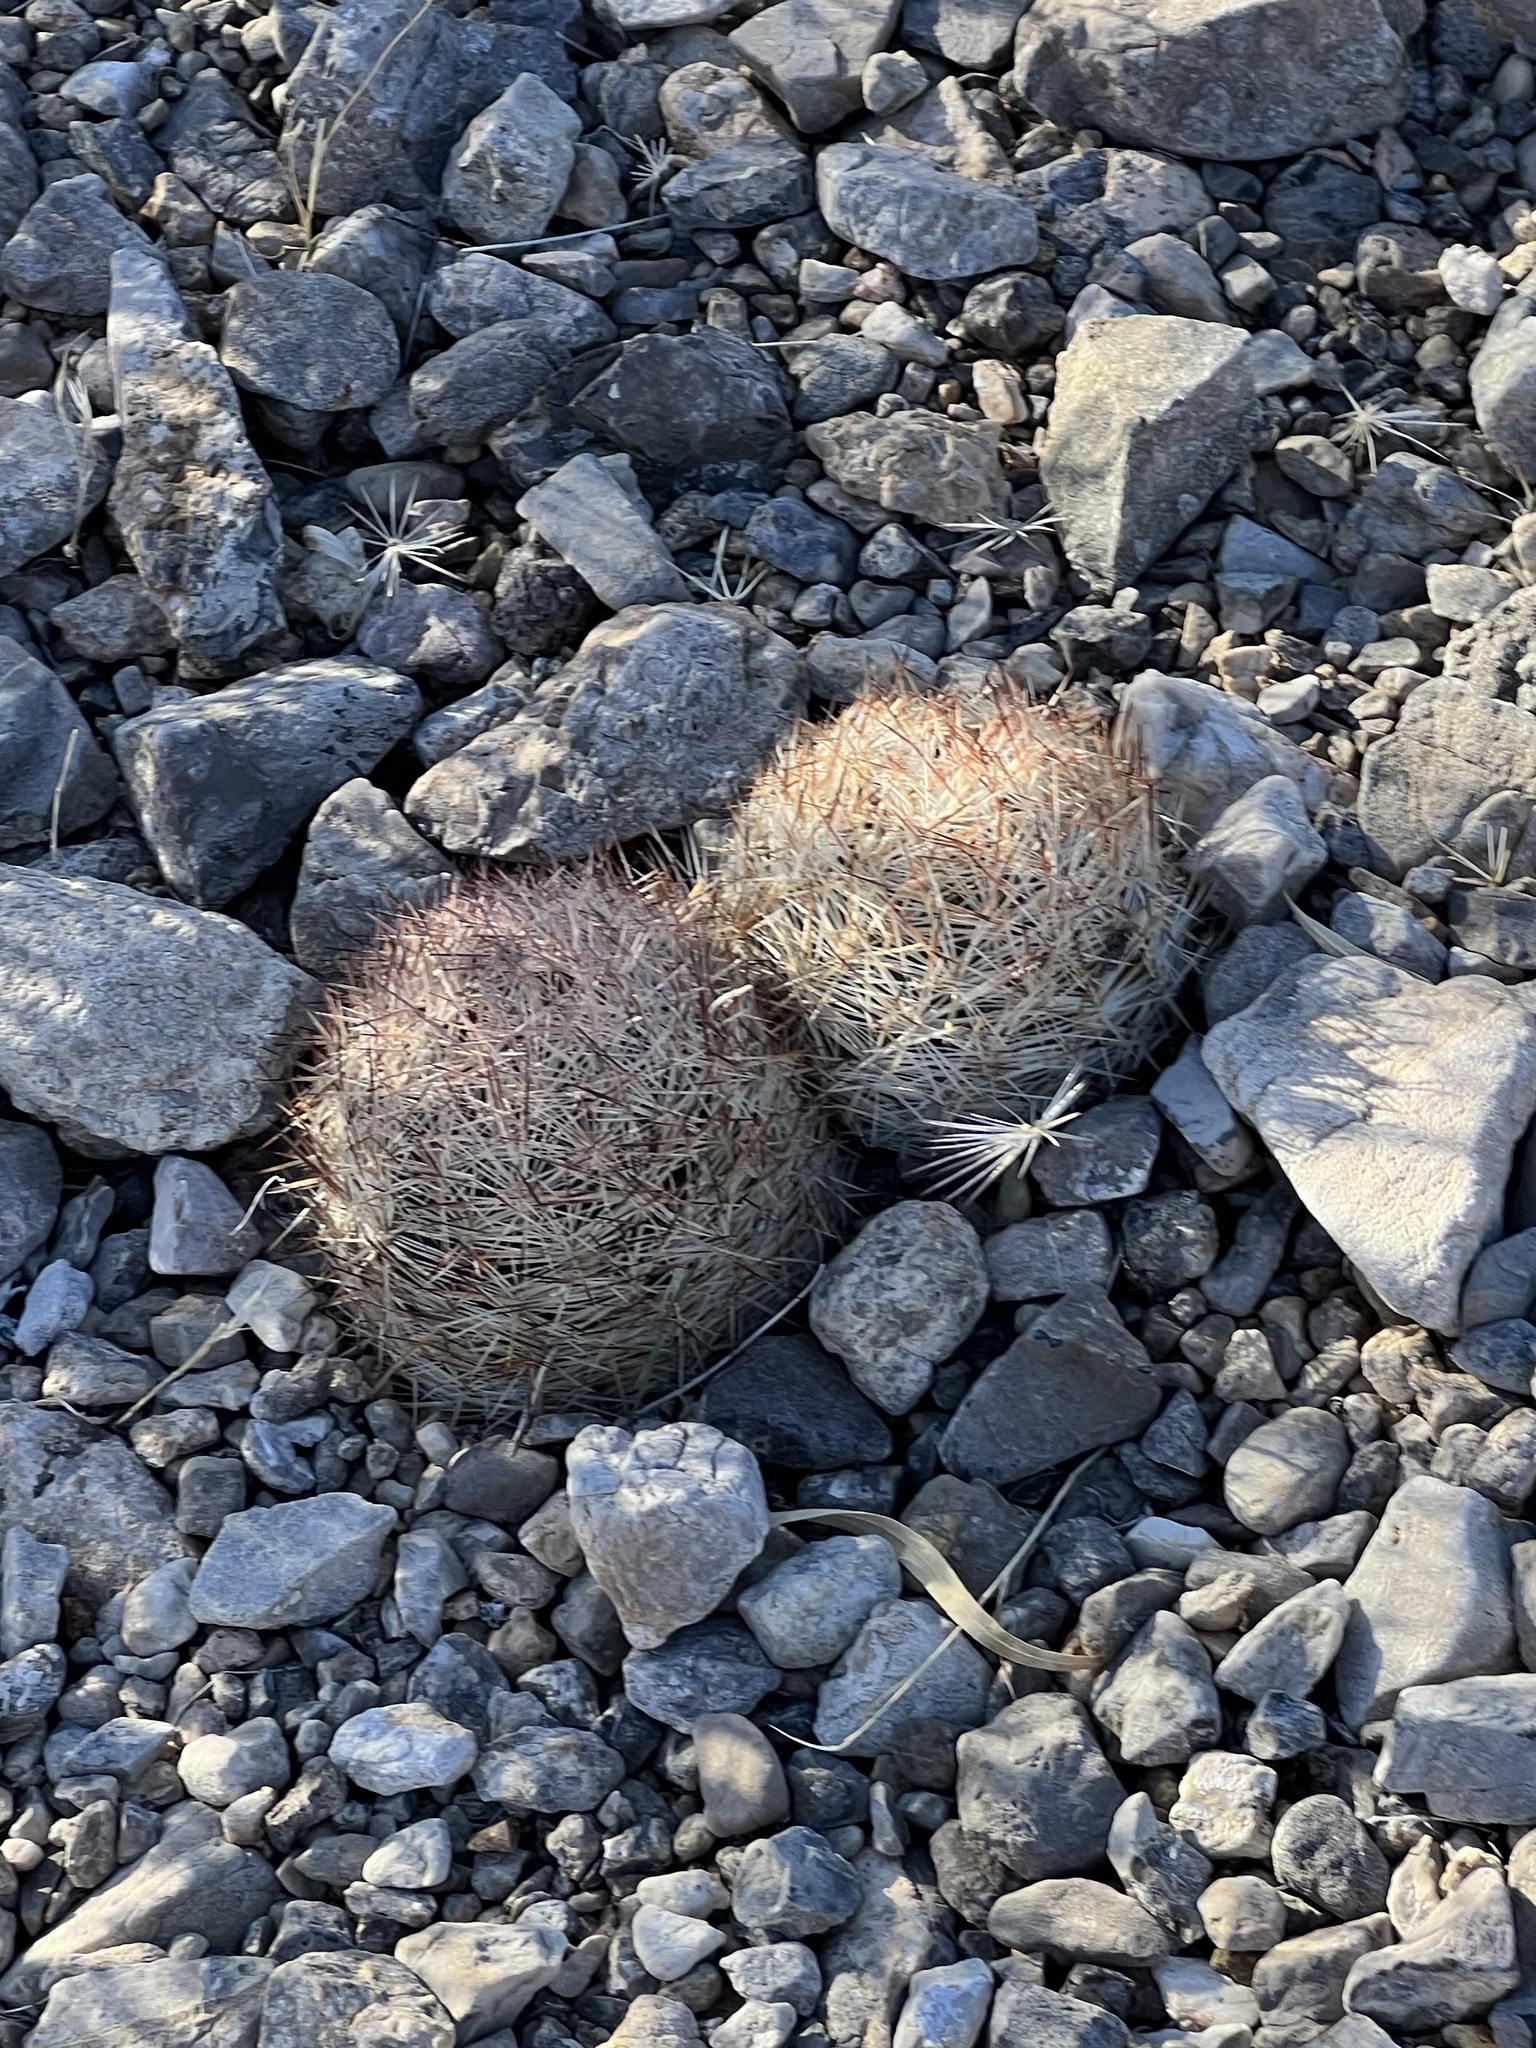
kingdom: Plantae
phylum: Tracheophyta
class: Magnoliopsida
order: Caryophyllales
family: Cactaceae
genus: Pelecyphora
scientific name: Pelecyphora dasyacantha
